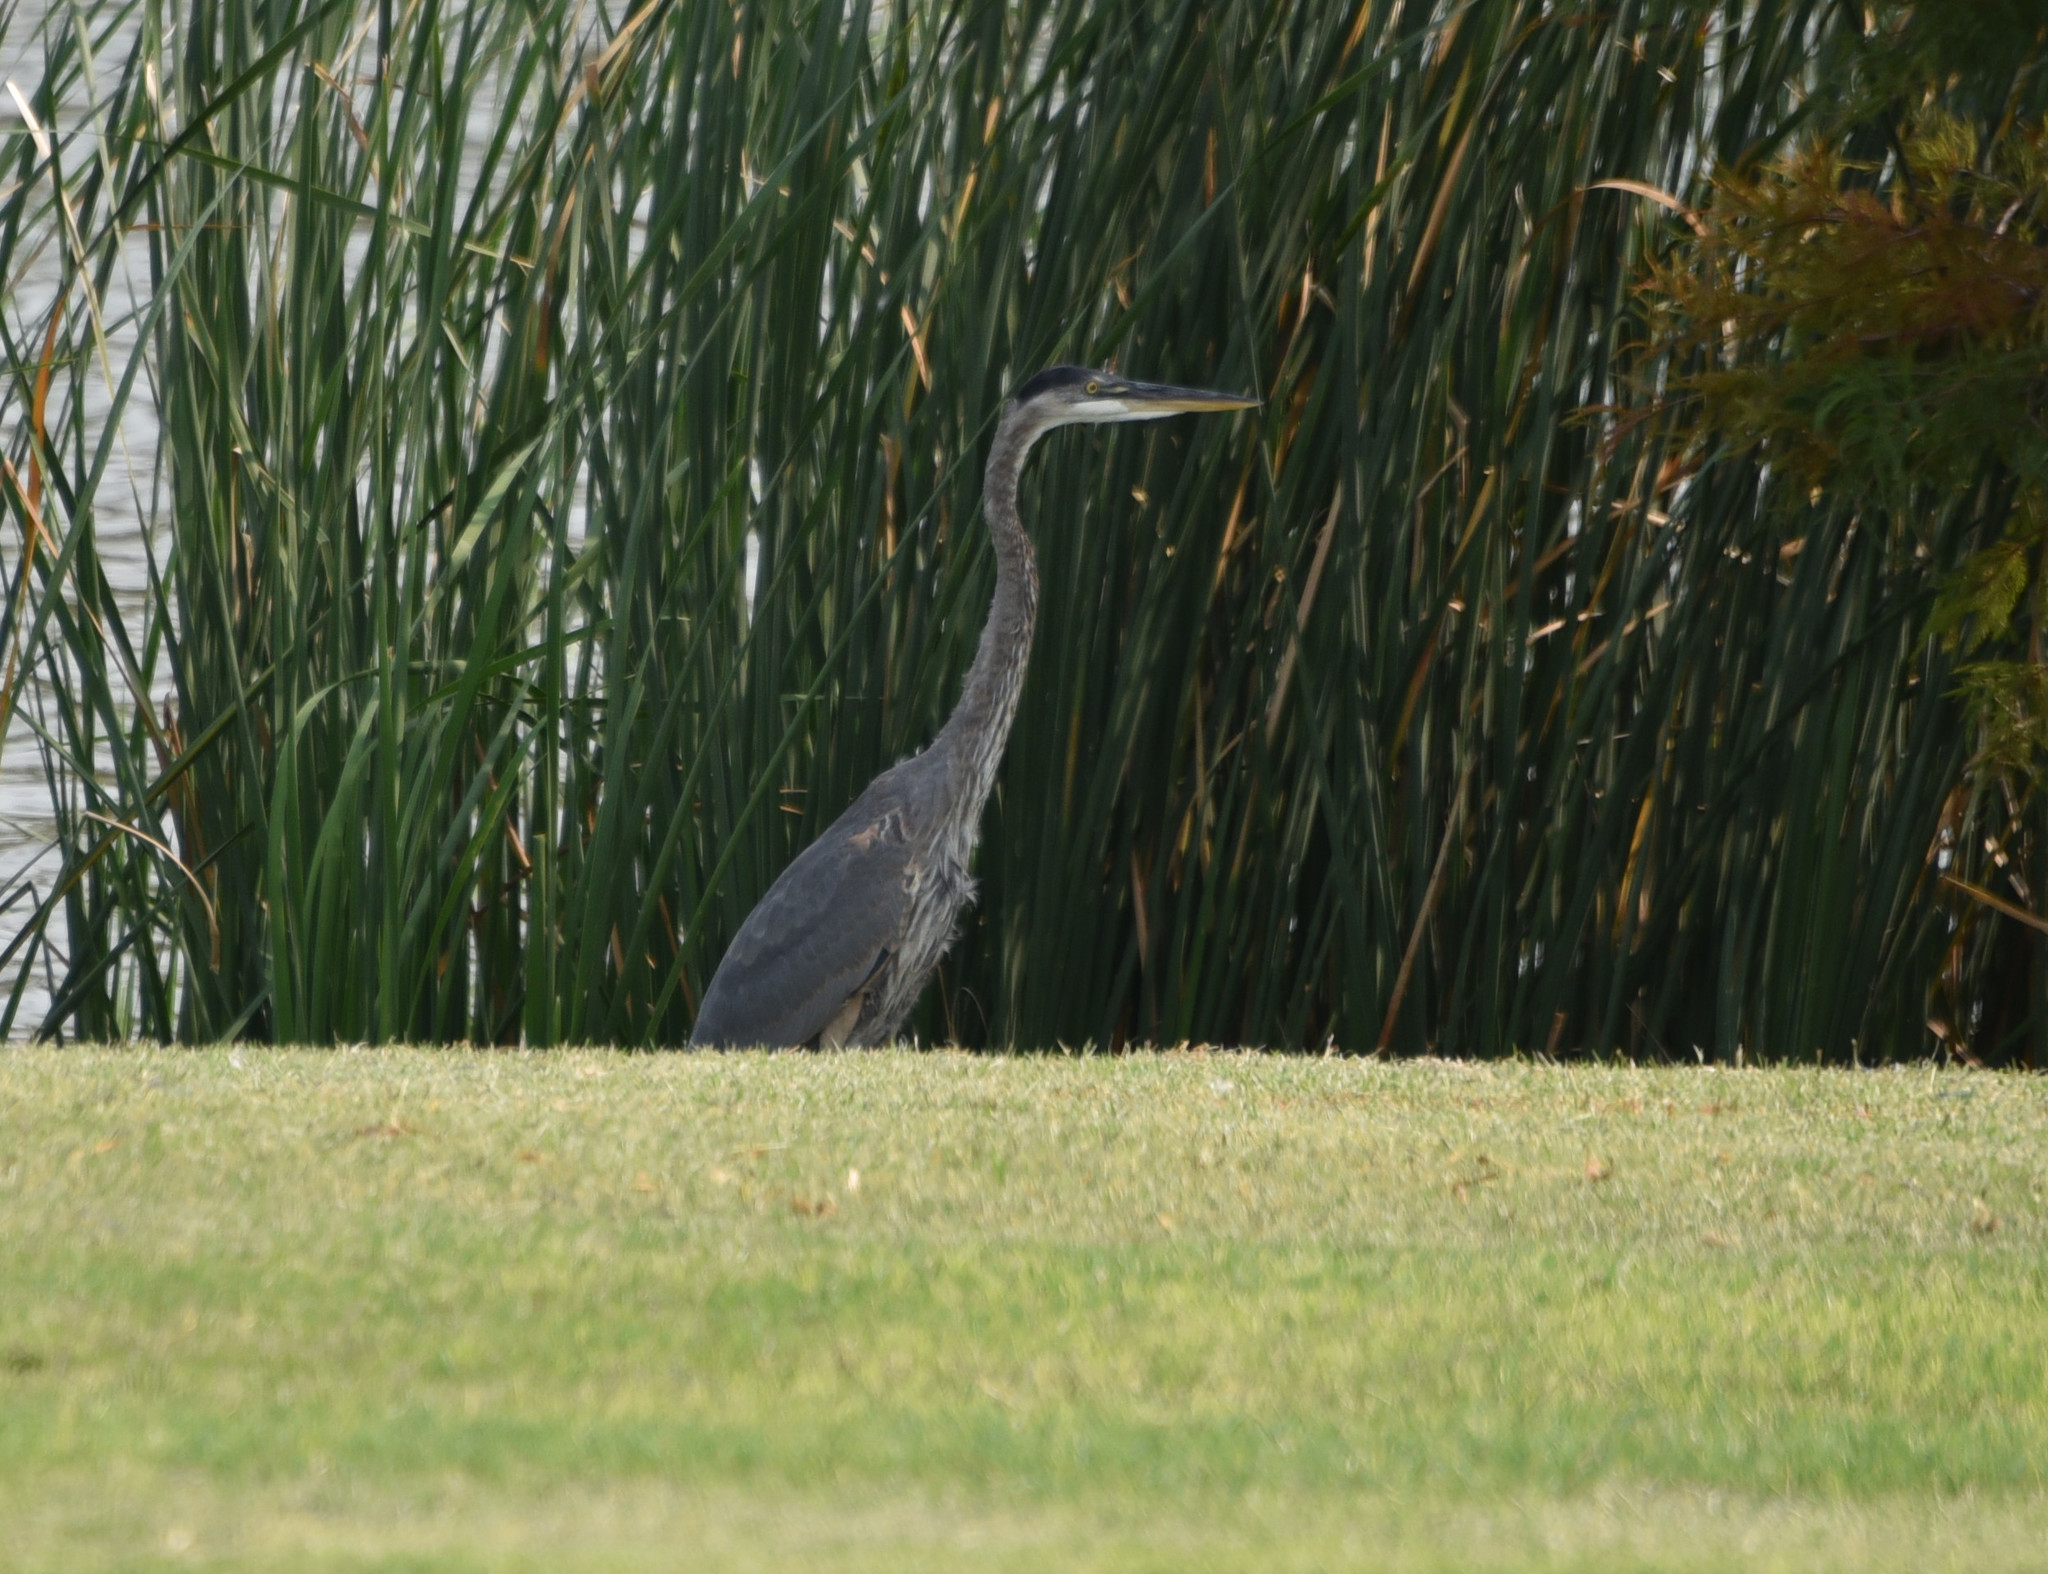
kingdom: Animalia
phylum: Chordata
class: Aves
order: Pelecaniformes
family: Ardeidae
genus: Ardea
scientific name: Ardea herodias
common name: Great blue heron
